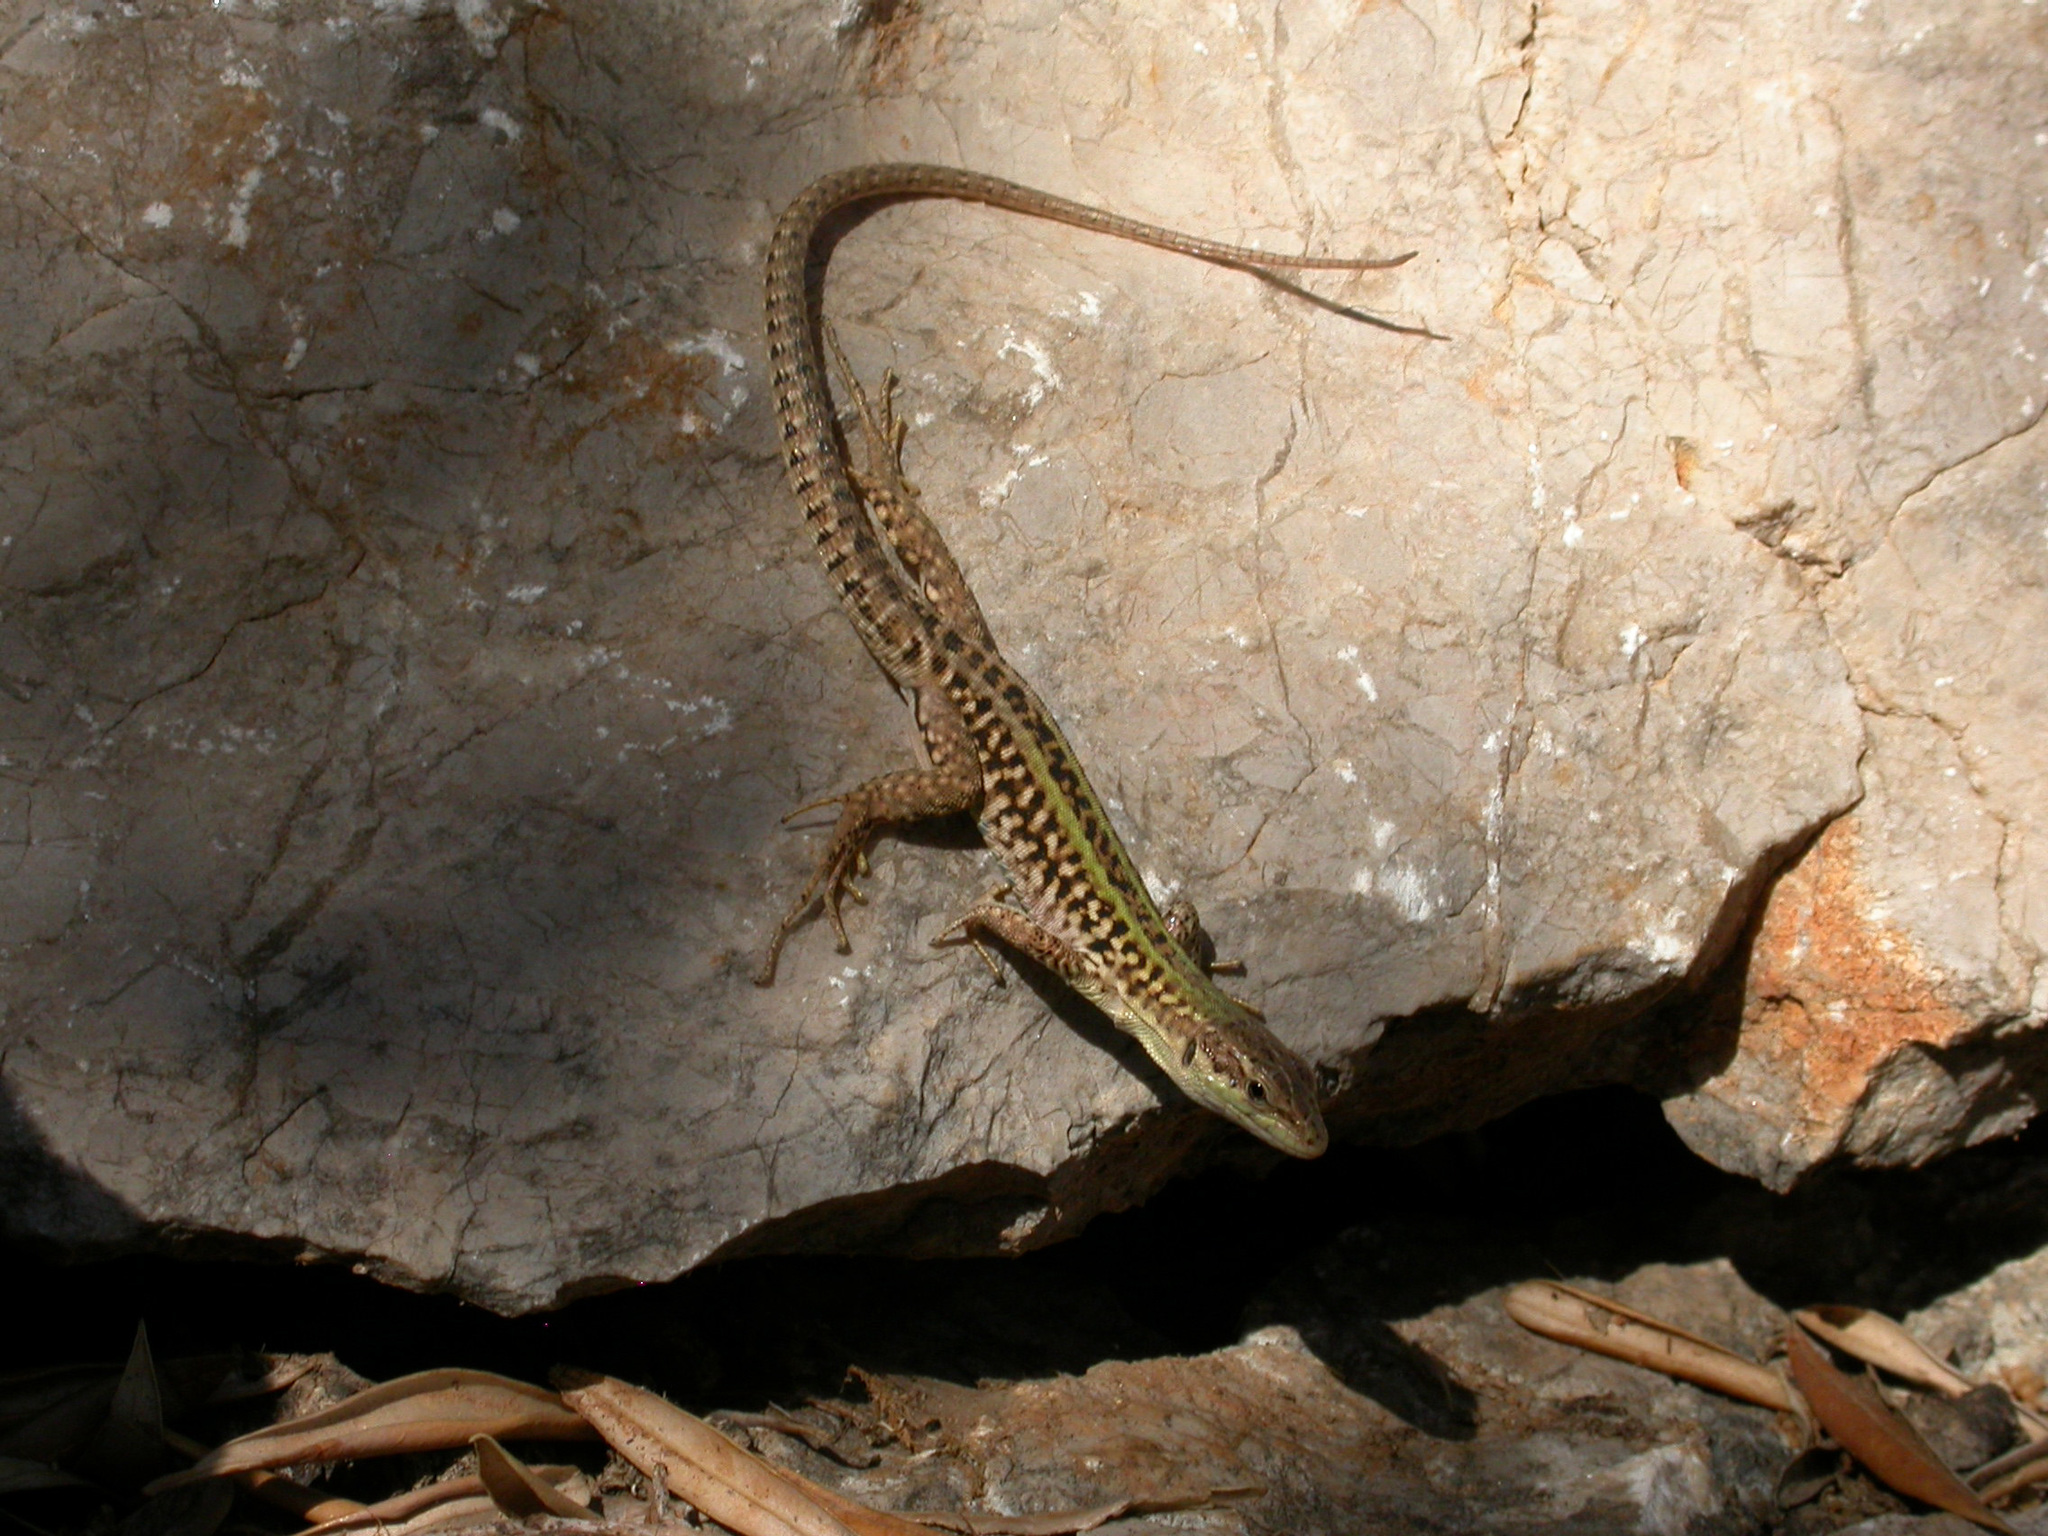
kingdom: Animalia
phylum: Chordata
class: Squamata
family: Lacertidae
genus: Podarcis
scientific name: Podarcis siculus
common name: Italian wall lizard
